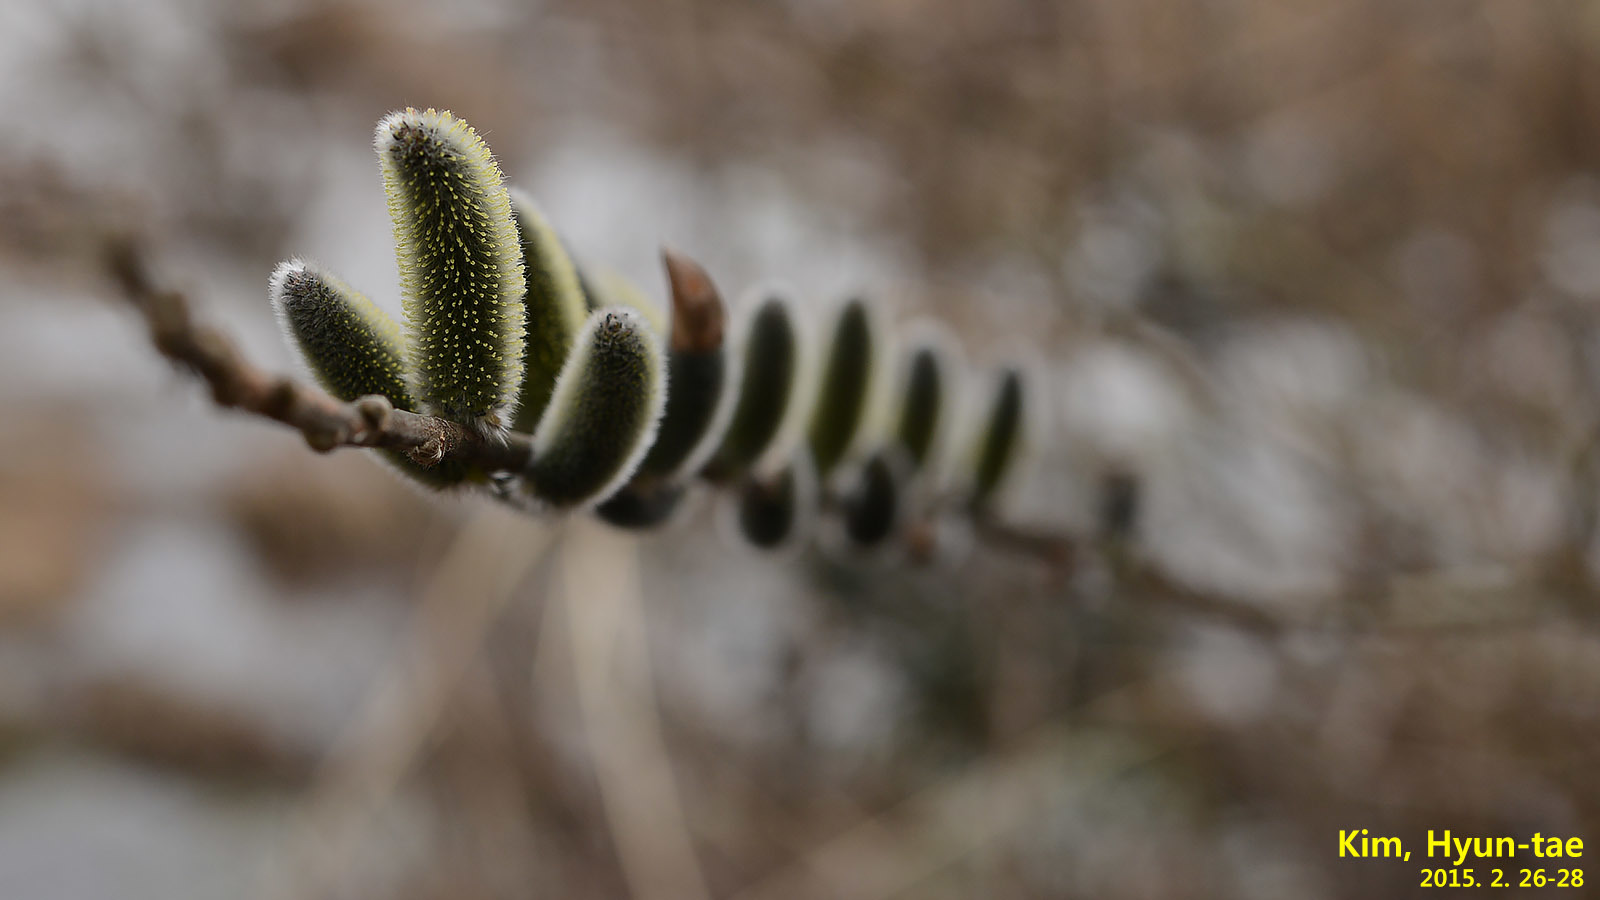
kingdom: Plantae
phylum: Tracheophyta
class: Magnoliopsida
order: Malpighiales
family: Salicaceae
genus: Salix
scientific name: Salix gracilistyla
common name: Rose-gold pussy willow
